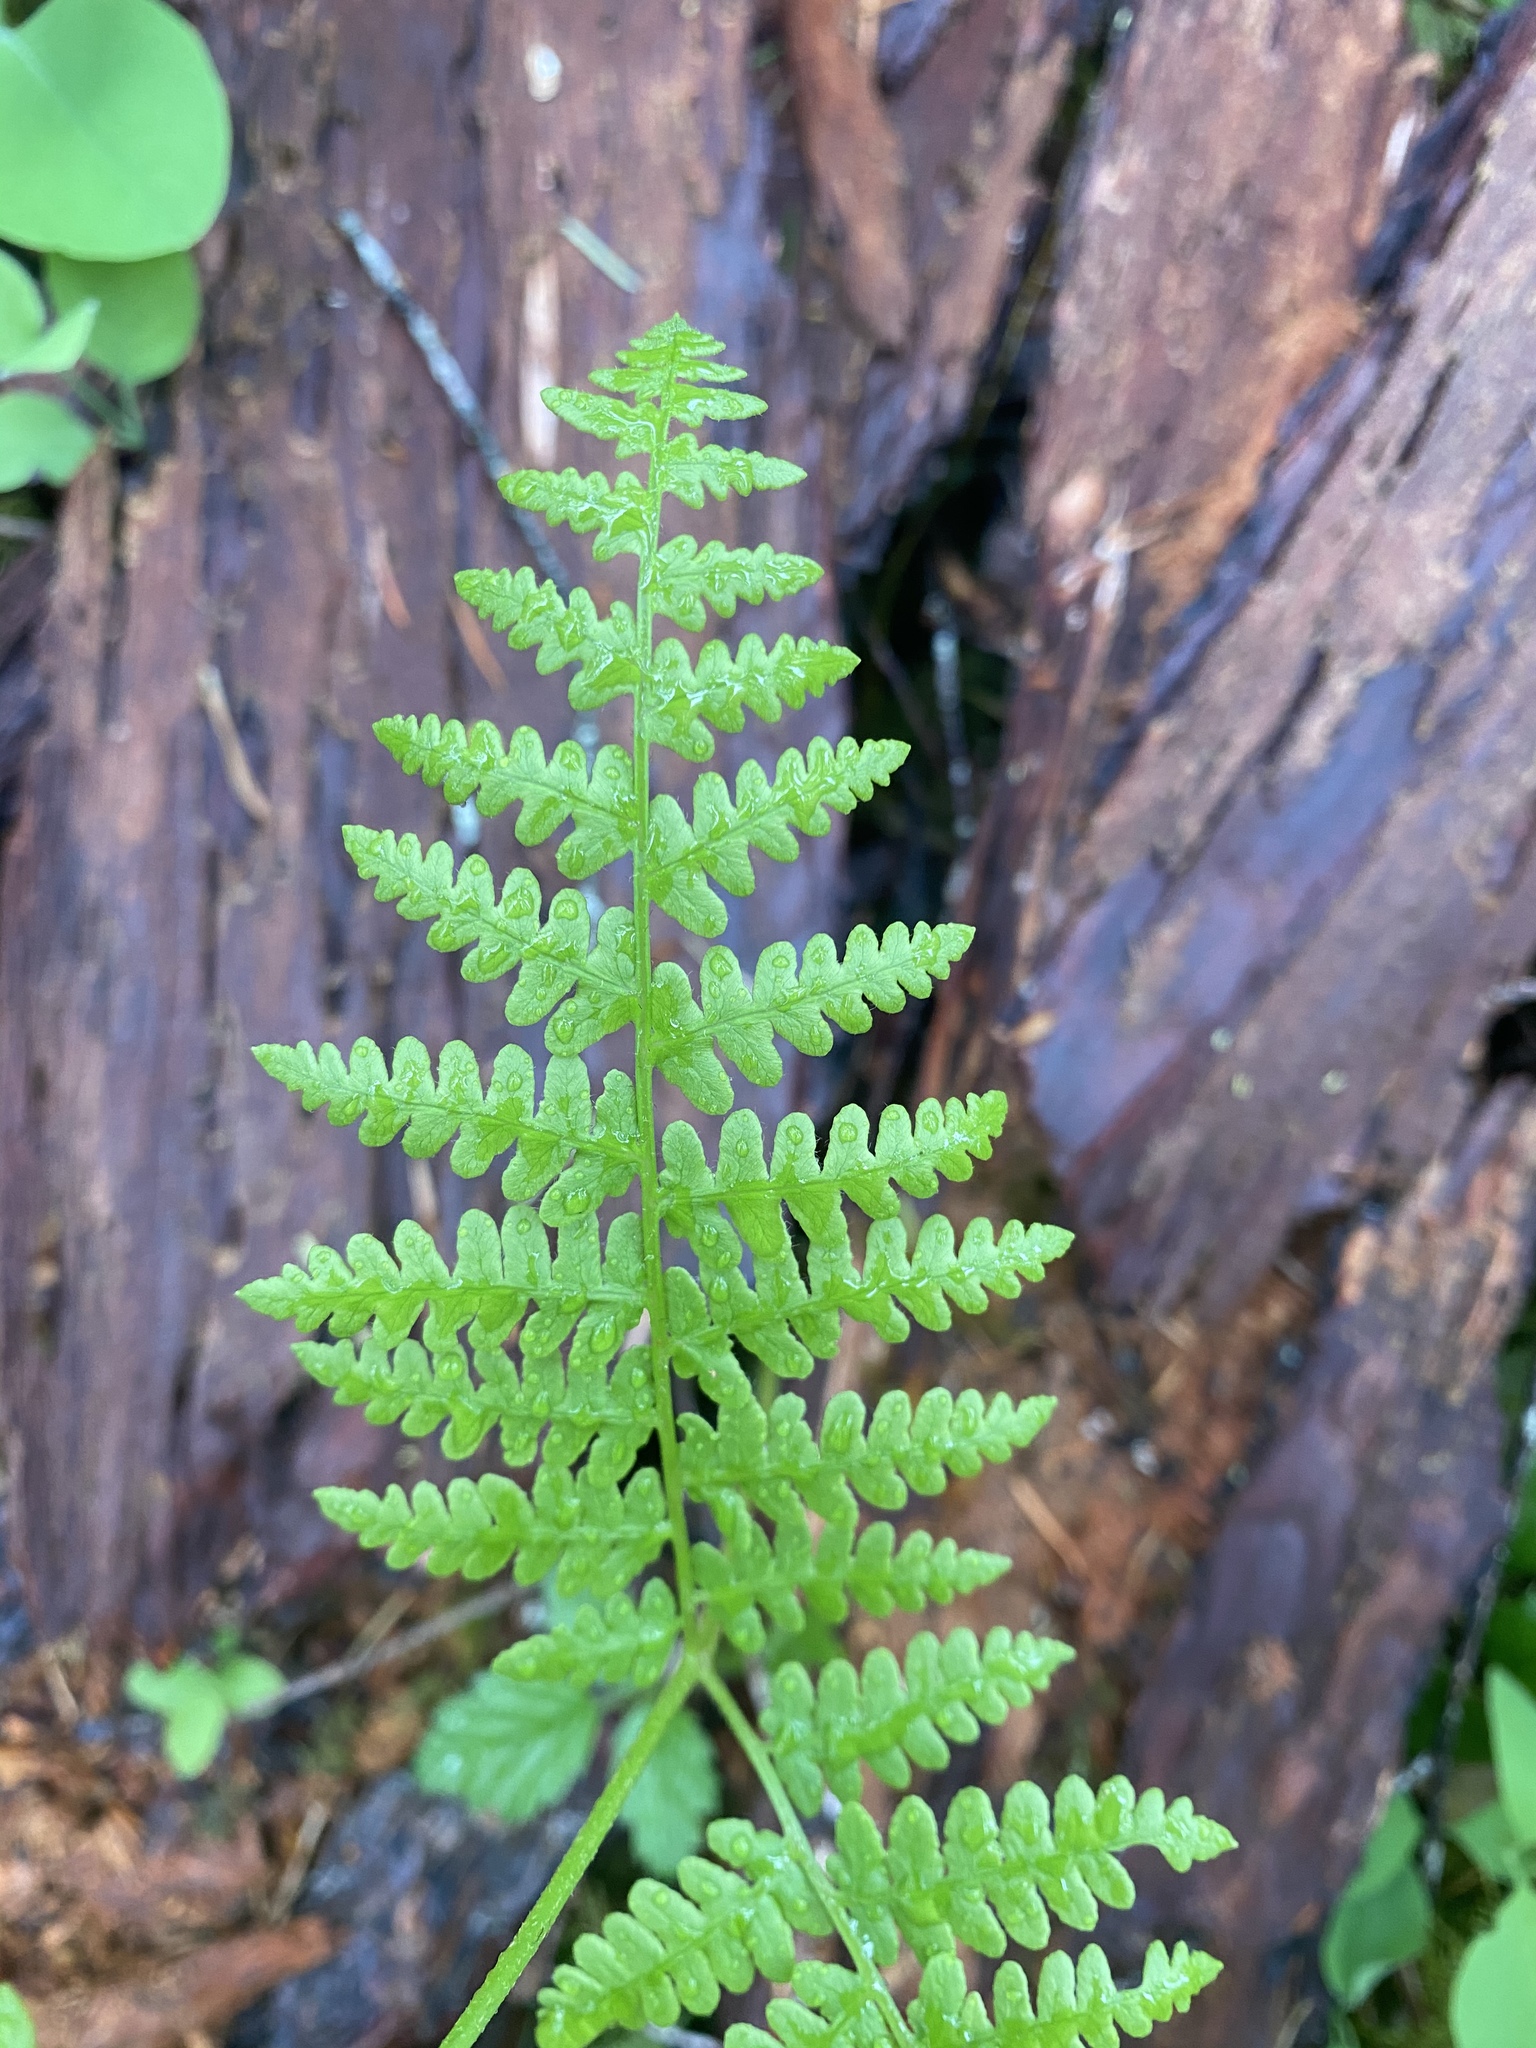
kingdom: Plantae
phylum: Tracheophyta
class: Polypodiopsida
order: Polypodiales
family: Dennstaedtiaceae
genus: Pteridium
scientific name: Pteridium aquilinum
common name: Bracken
